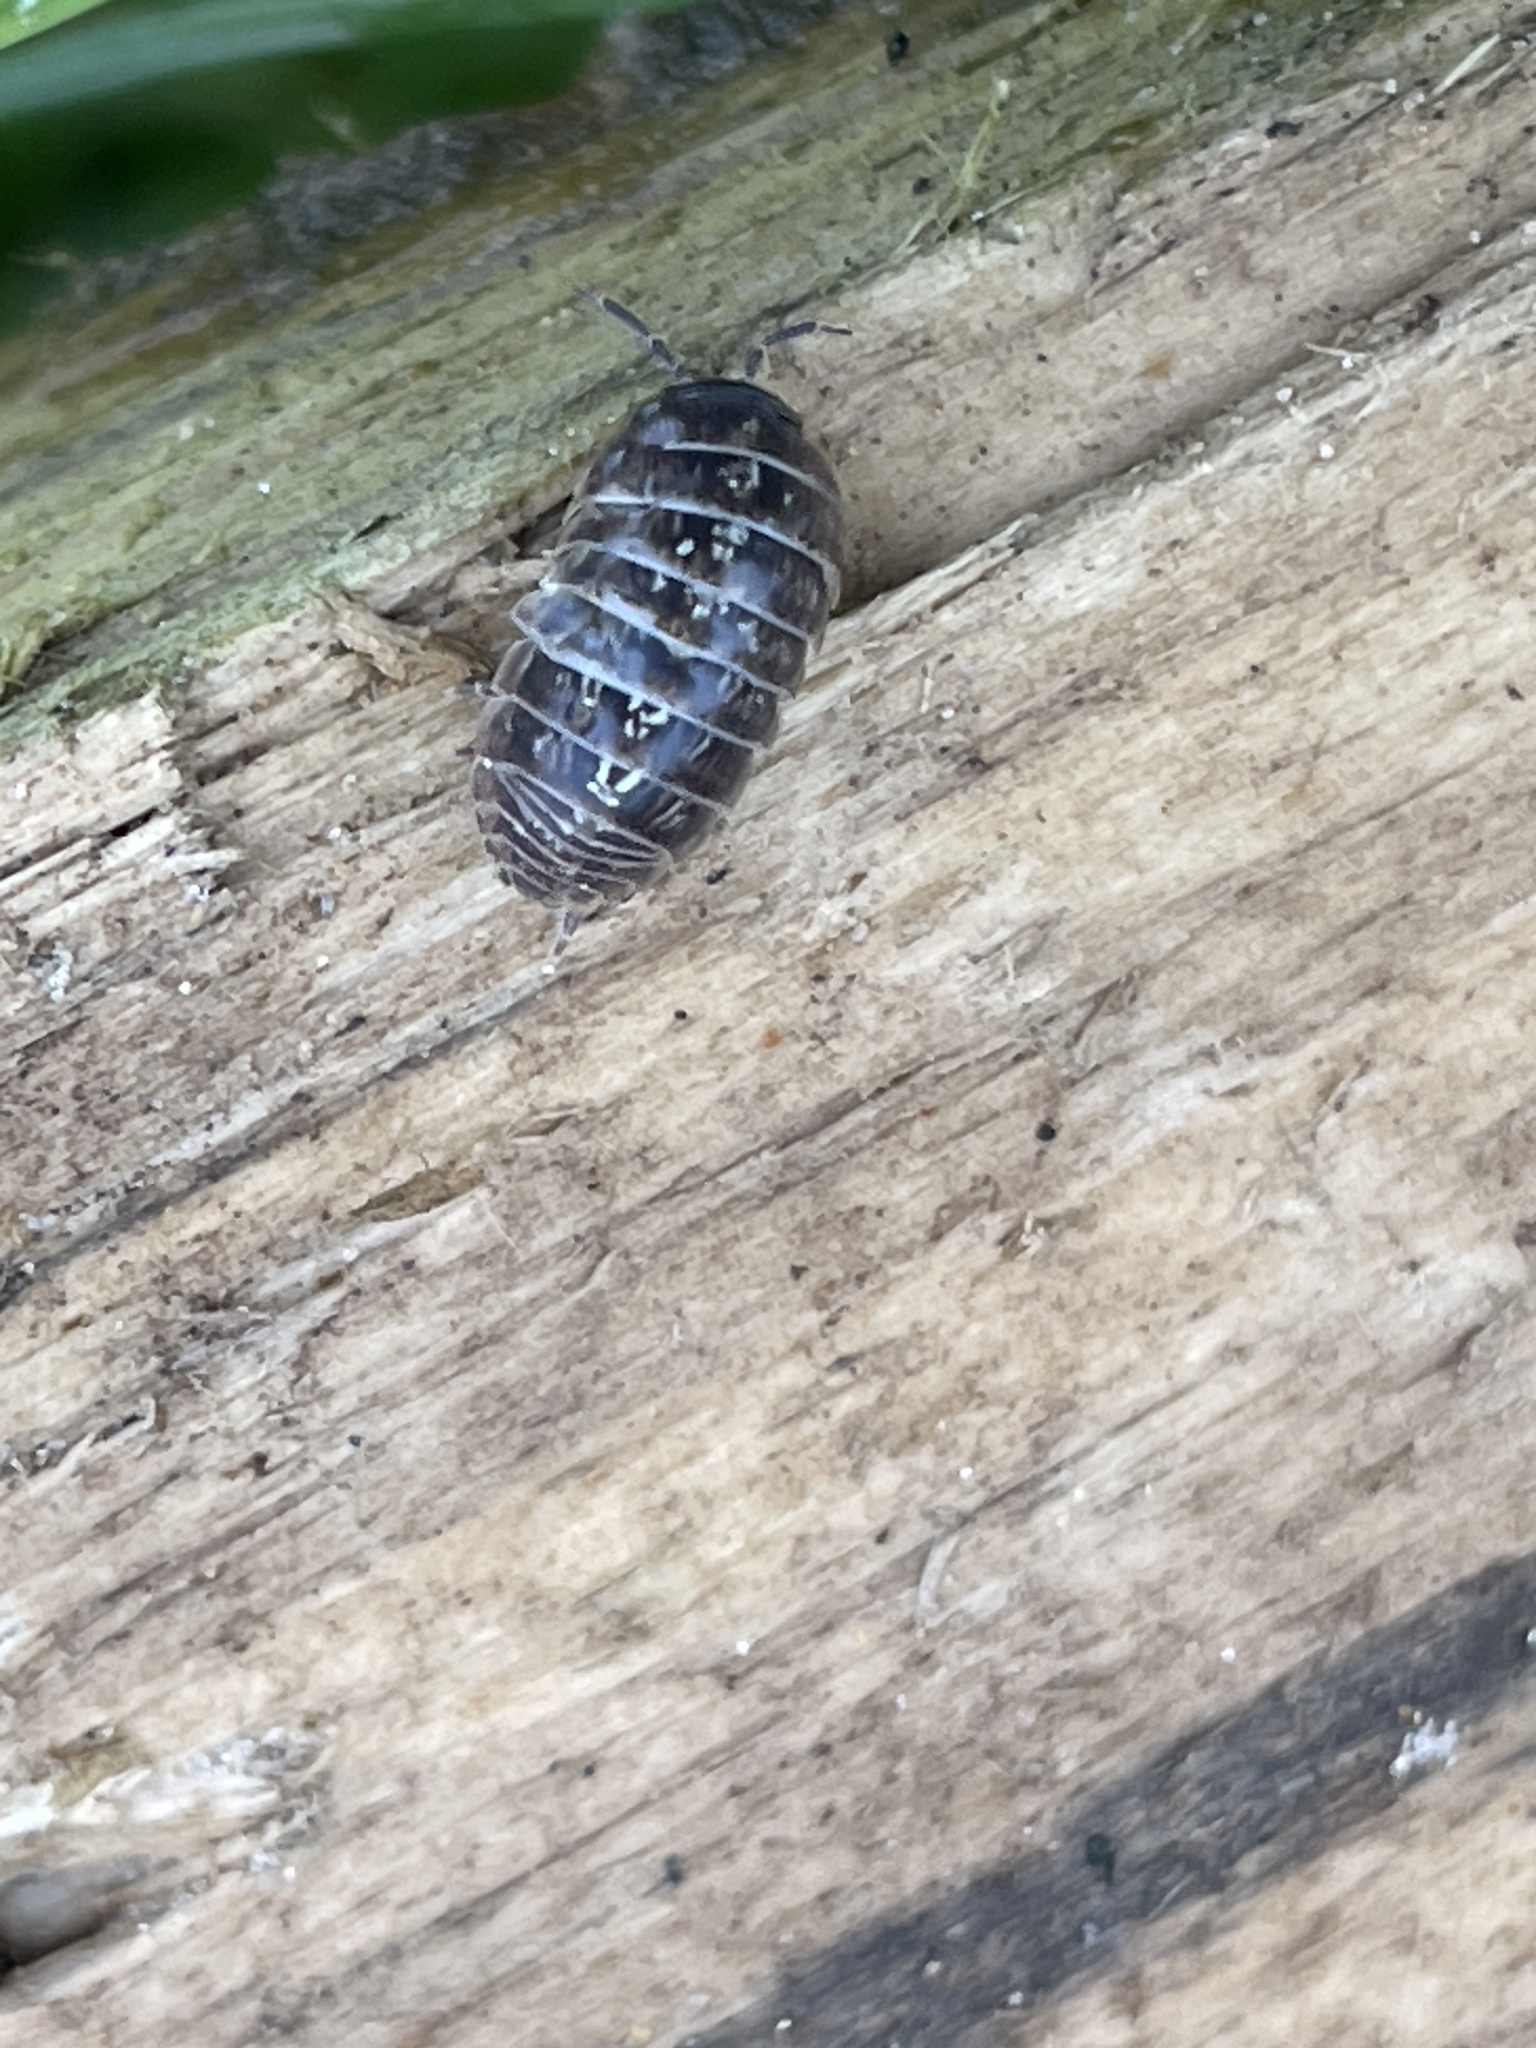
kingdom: Animalia
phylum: Arthropoda
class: Malacostraca
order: Isopoda
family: Armadillidiidae
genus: Armadillidium
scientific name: Armadillidium vulgare
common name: Common pill woodlouse
